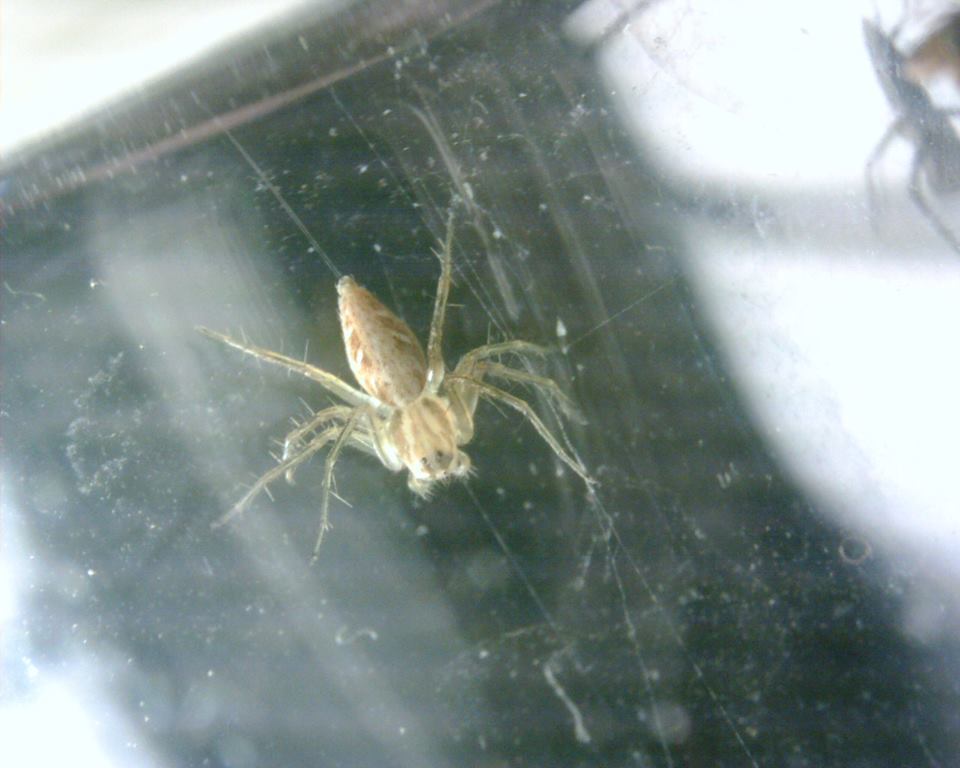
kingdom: Animalia
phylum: Arthropoda
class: Arachnida
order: Araneae
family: Oxyopidae
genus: Oxyopes
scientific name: Oxyopes sertatus
